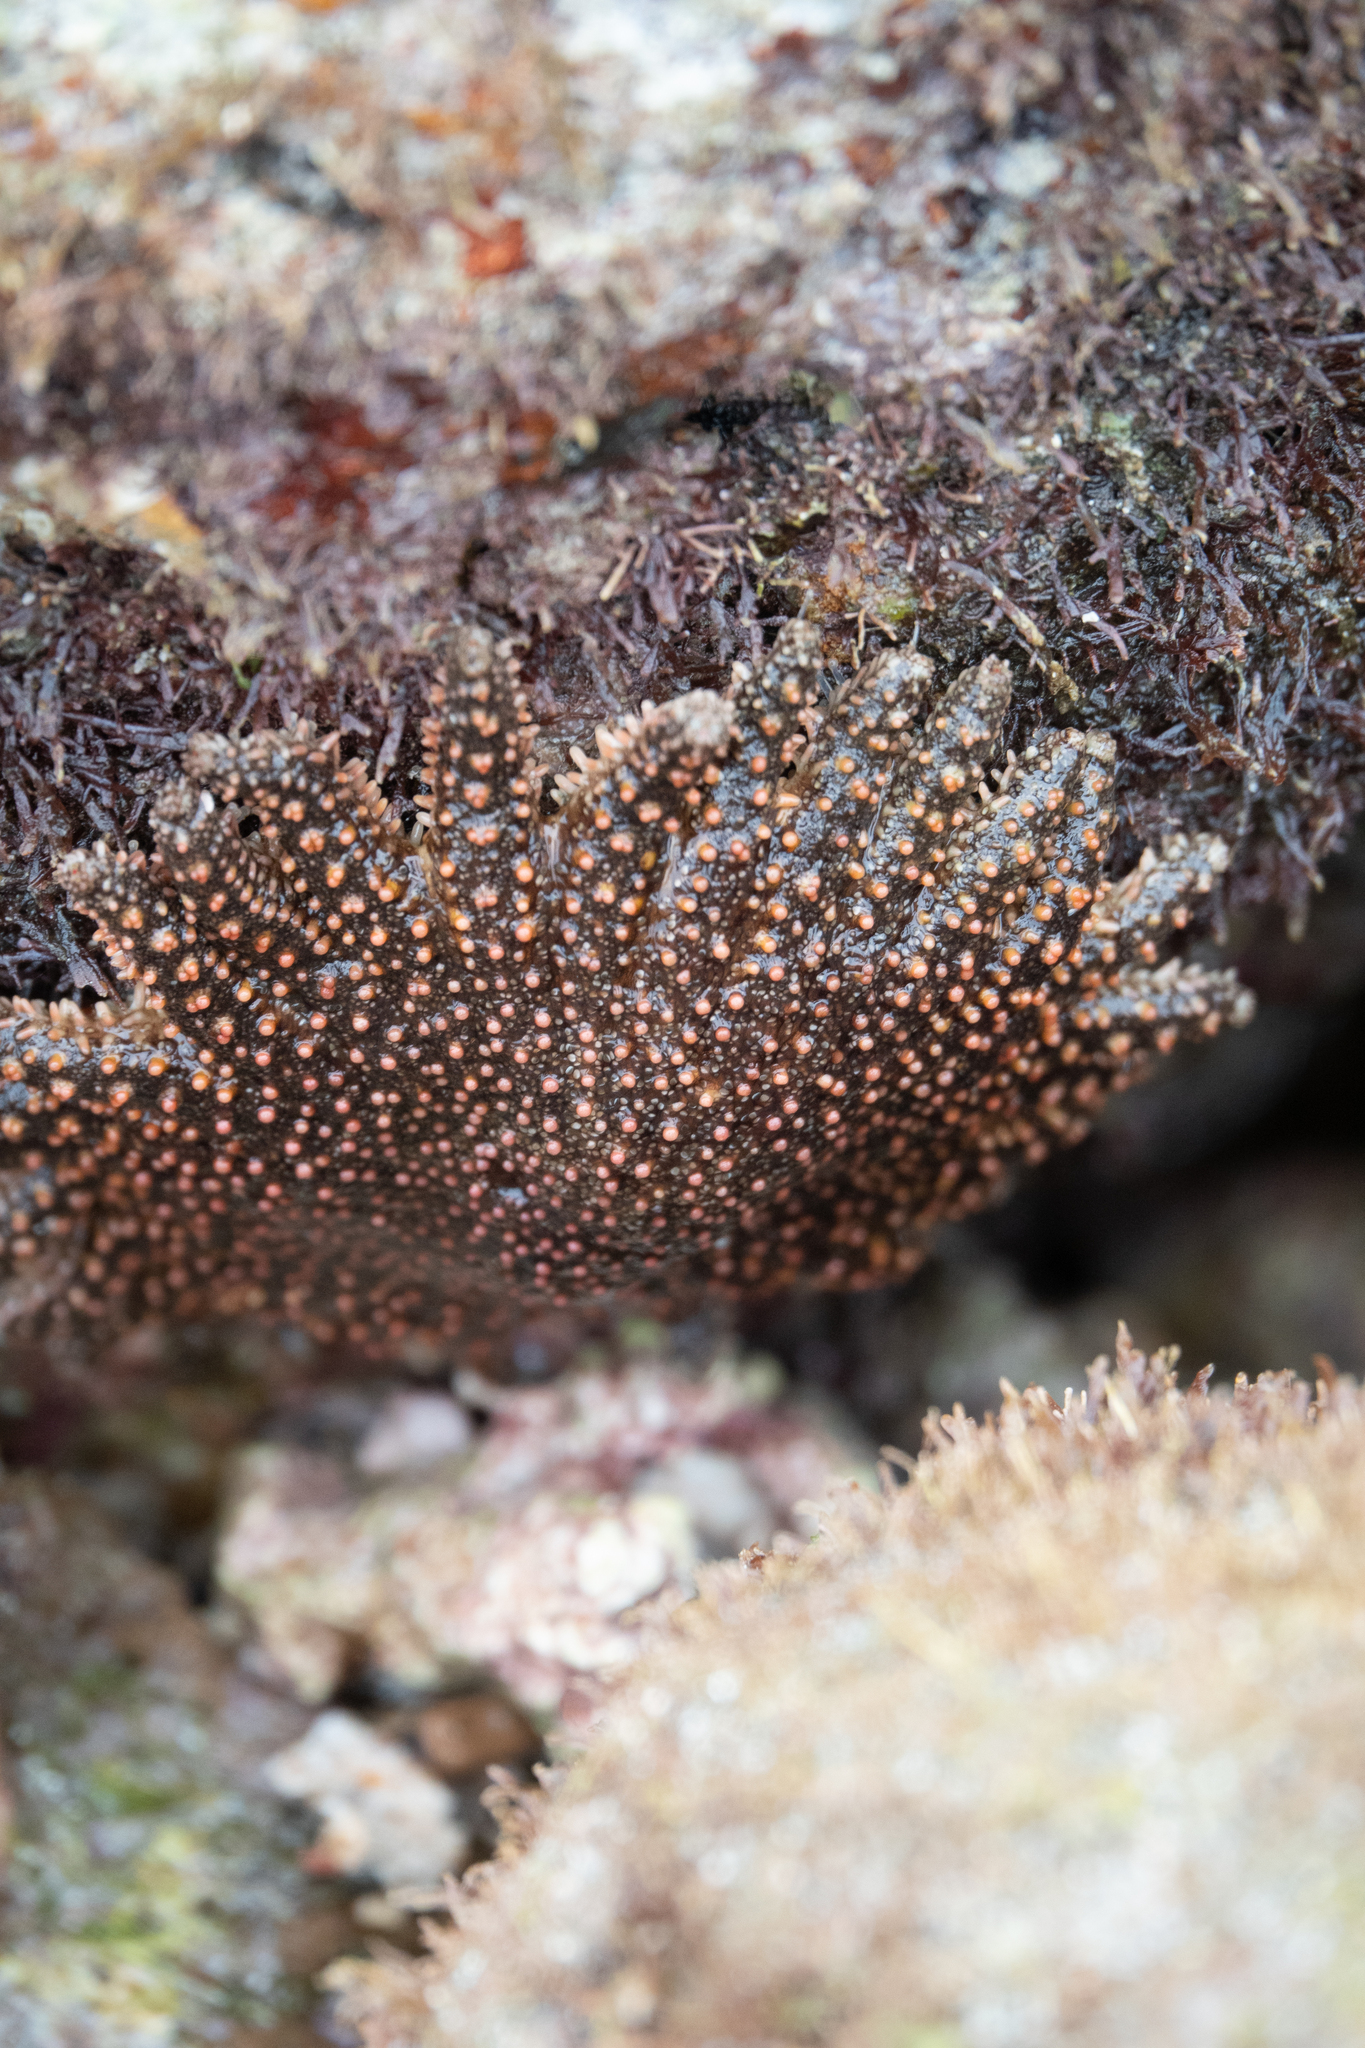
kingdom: Animalia
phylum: Echinodermata
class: Asteroidea
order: Forcipulatida
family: Heliasteridae
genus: Heliaster
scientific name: Heliaster cumingi
